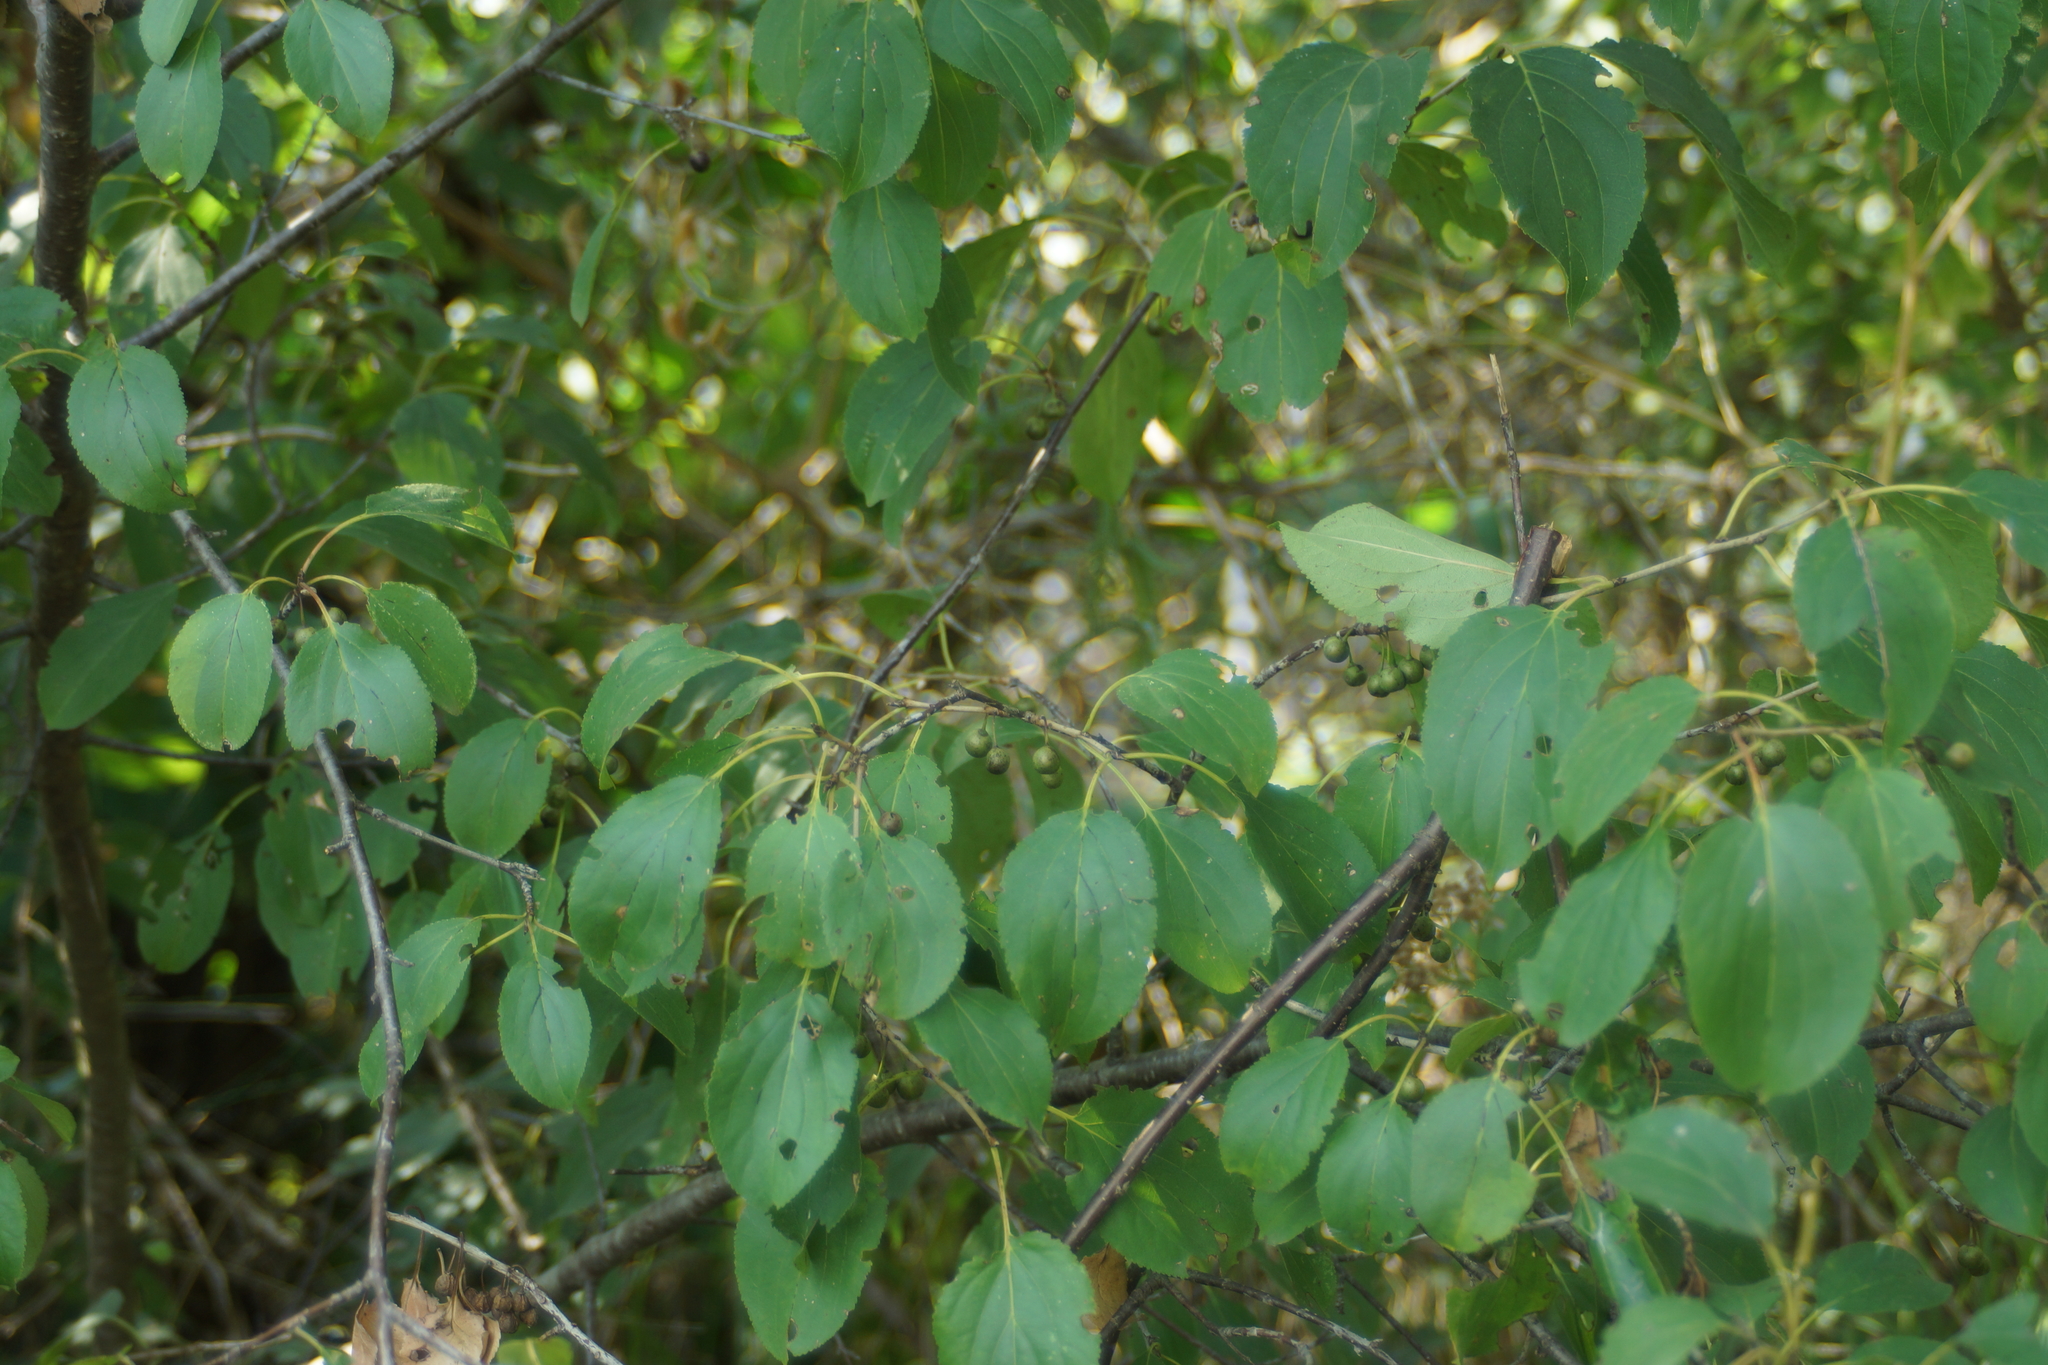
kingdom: Plantae
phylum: Tracheophyta
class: Magnoliopsida
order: Rosales
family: Rhamnaceae
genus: Rhamnus
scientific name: Rhamnus cathartica
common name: Common buckthorn
